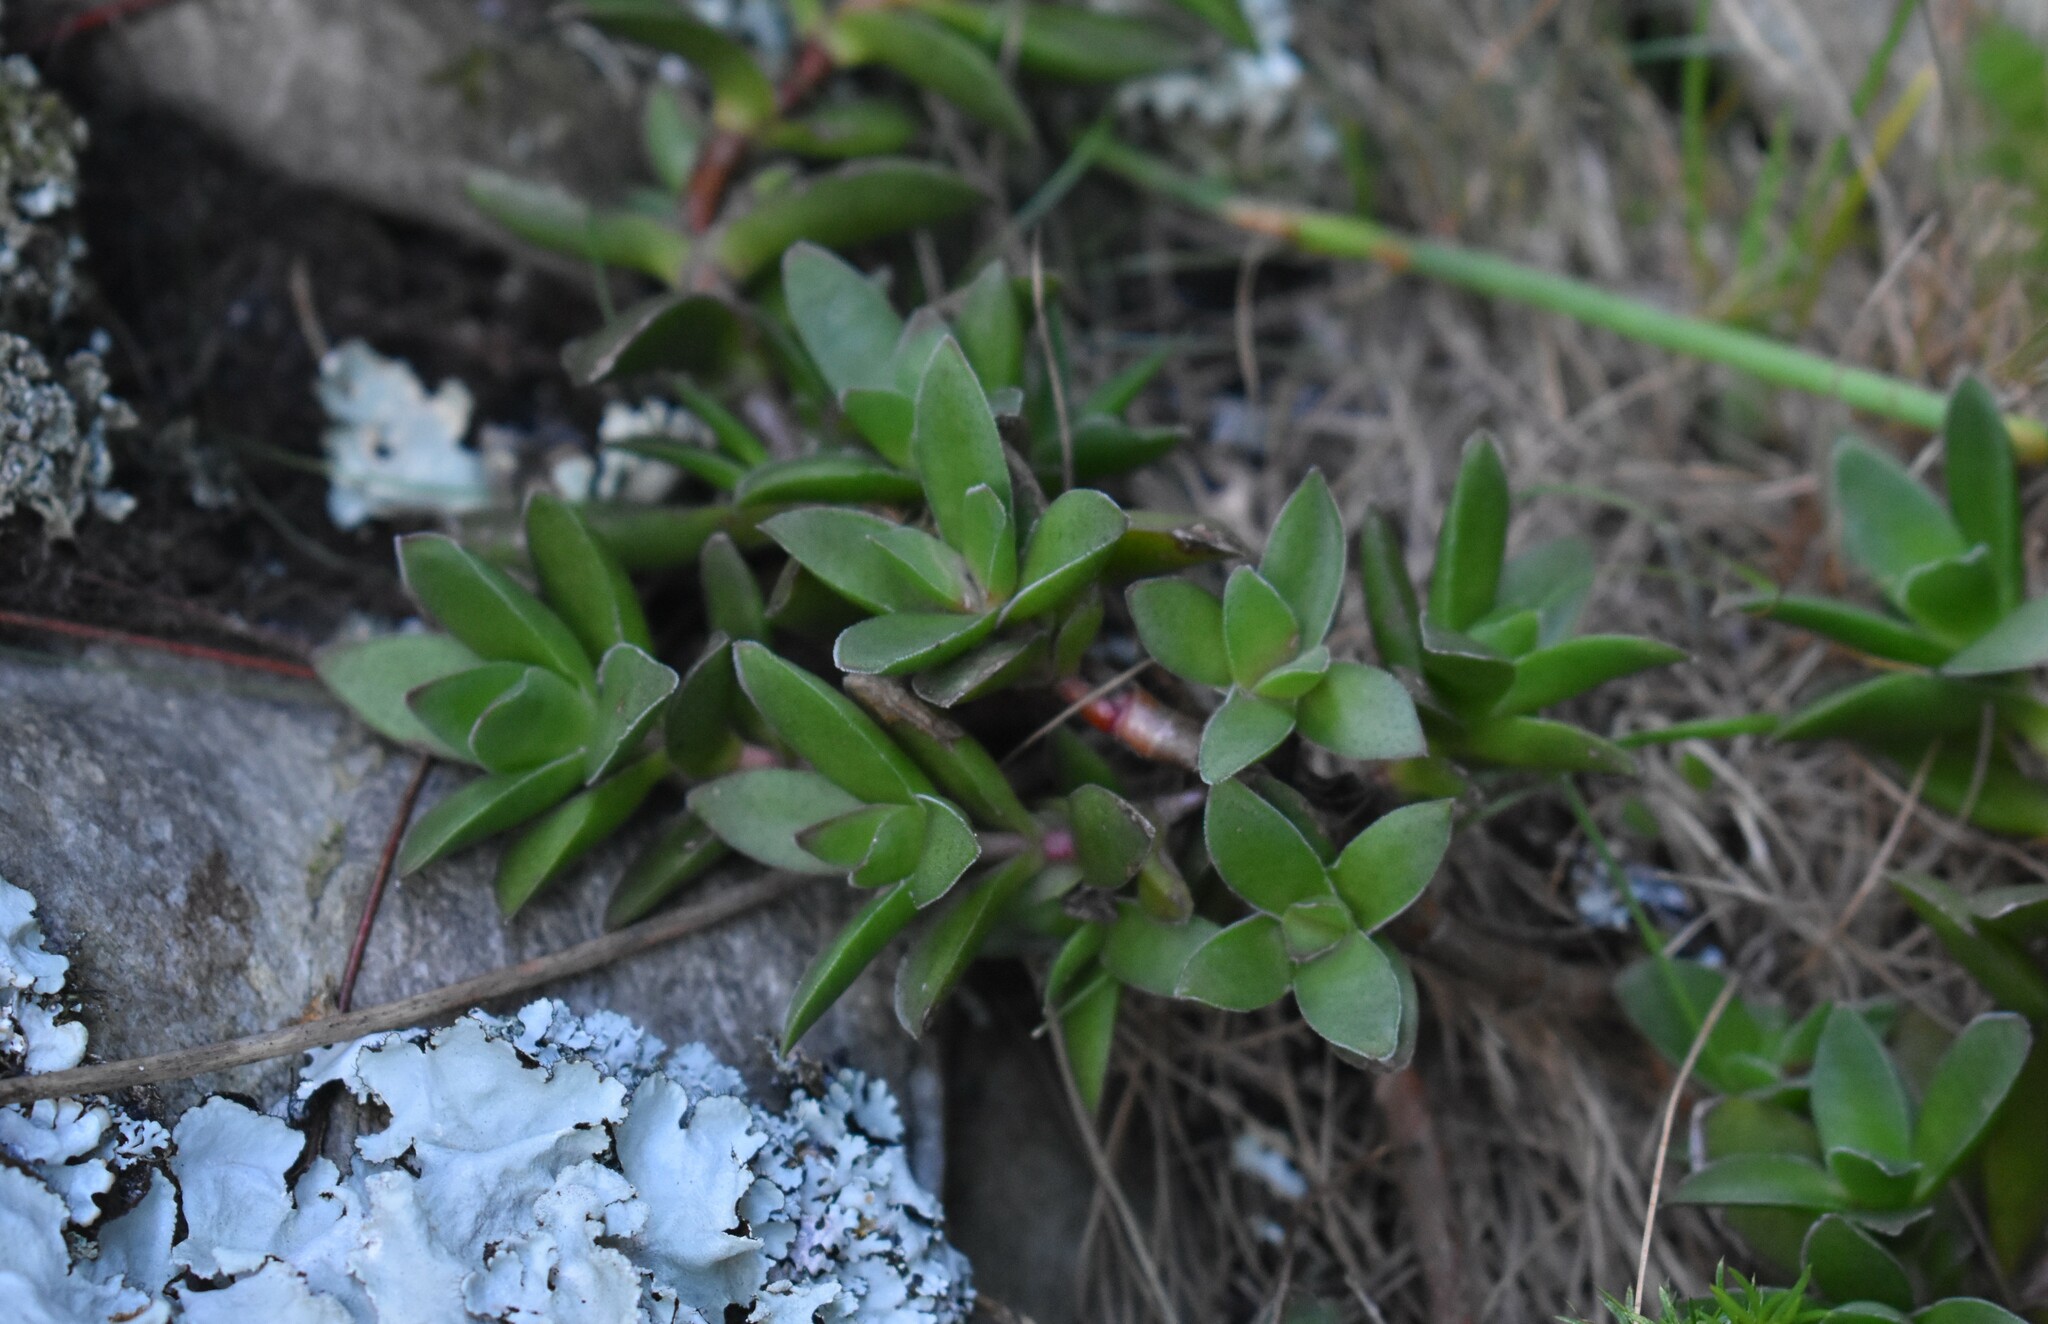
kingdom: Plantae
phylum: Tracheophyta
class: Magnoliopsida
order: Saxifragales
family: Crassulaceae
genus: Crassula
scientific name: Crassula rubricaulis
